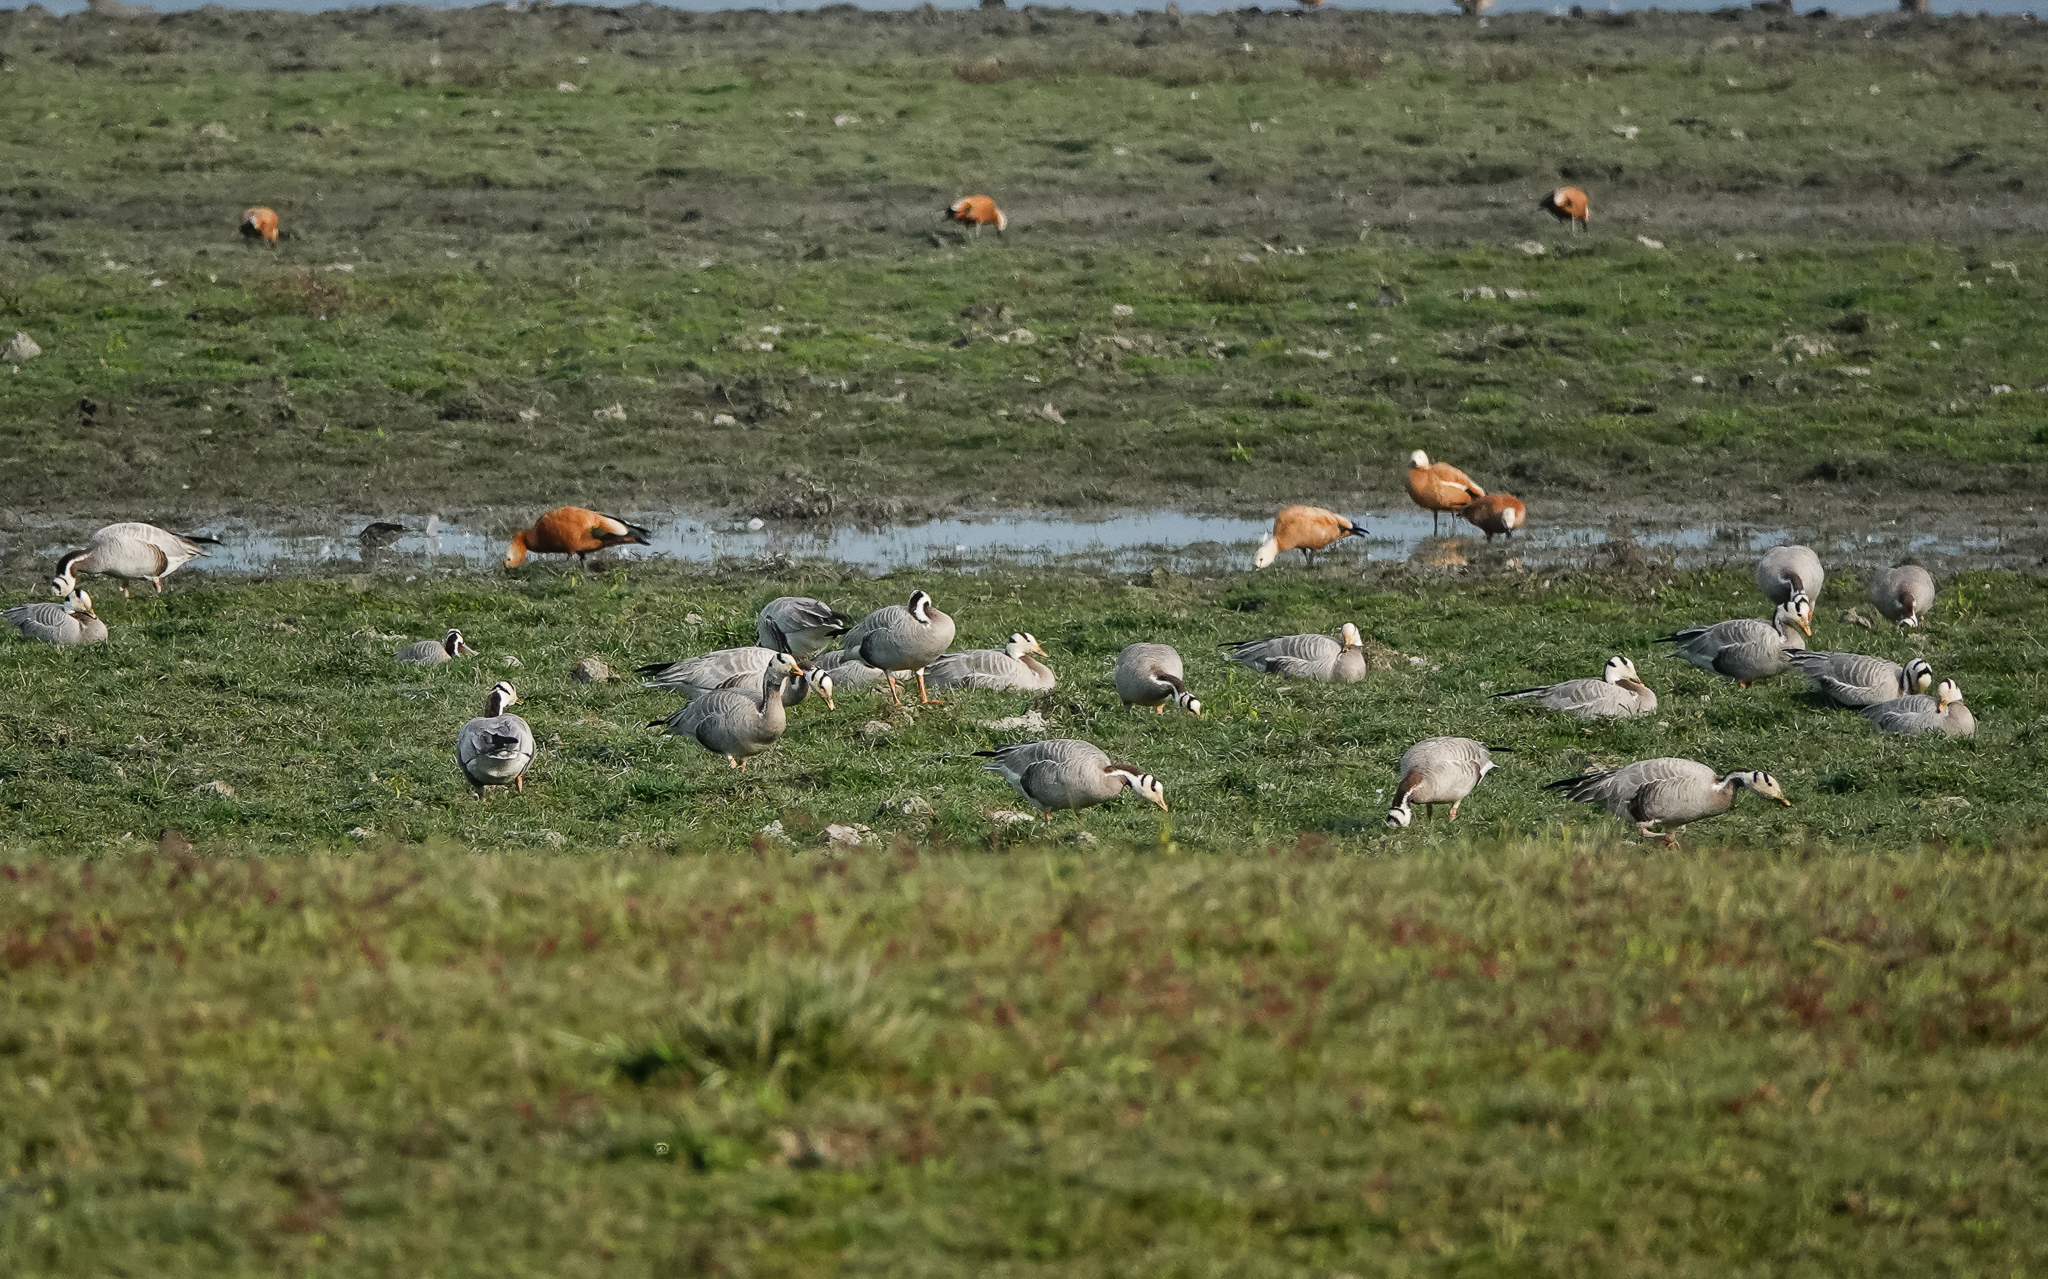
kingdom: Animalia
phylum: Chordata
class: Aves
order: Anseriformes
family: Anatidae
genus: Anser
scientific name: Anser indicus
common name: Bar-headed goose
